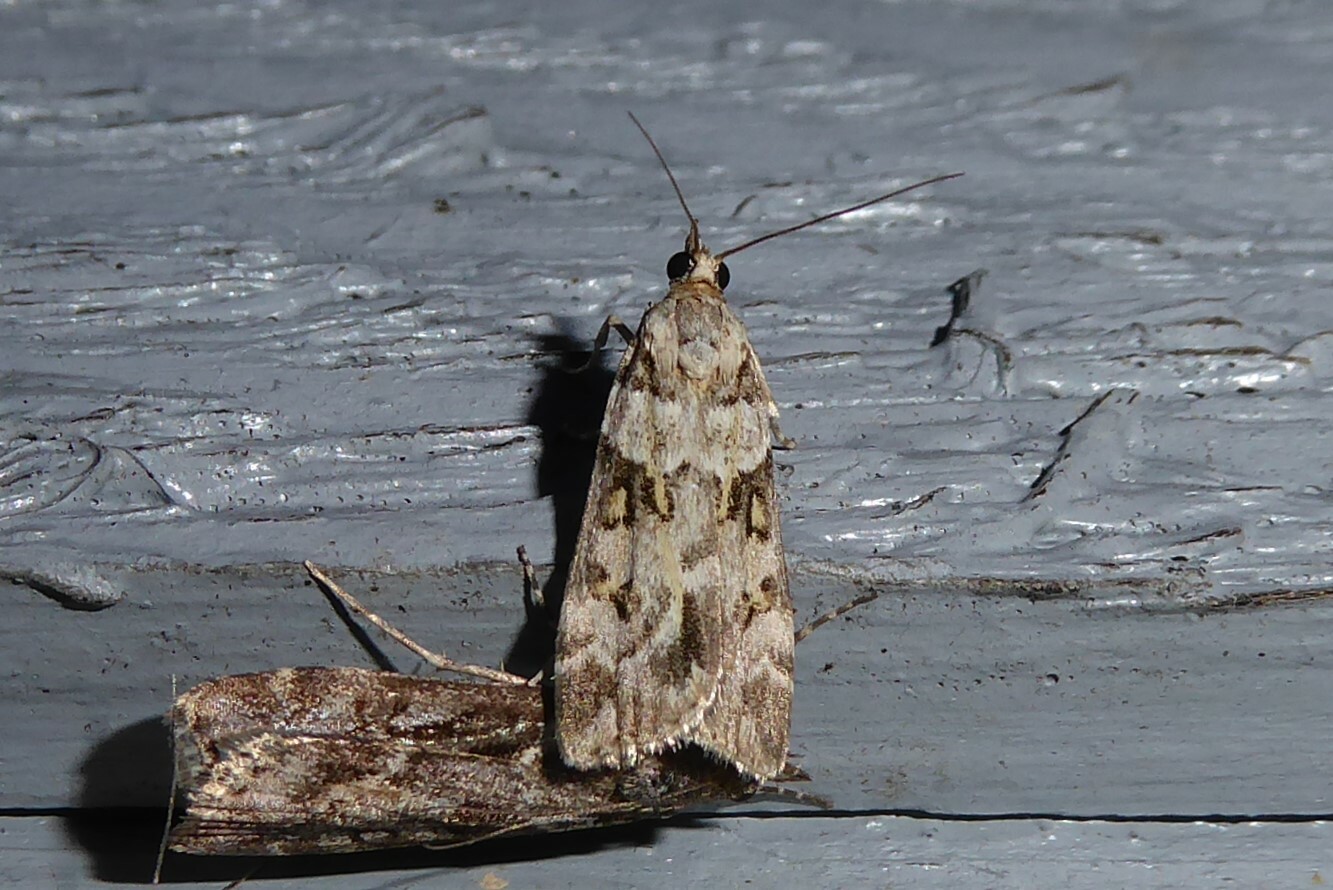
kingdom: Animalia
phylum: Arthropoda
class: Insecta
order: Lepidoptera
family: Crambidae
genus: Scoparia
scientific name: Scoparia tetracycla
